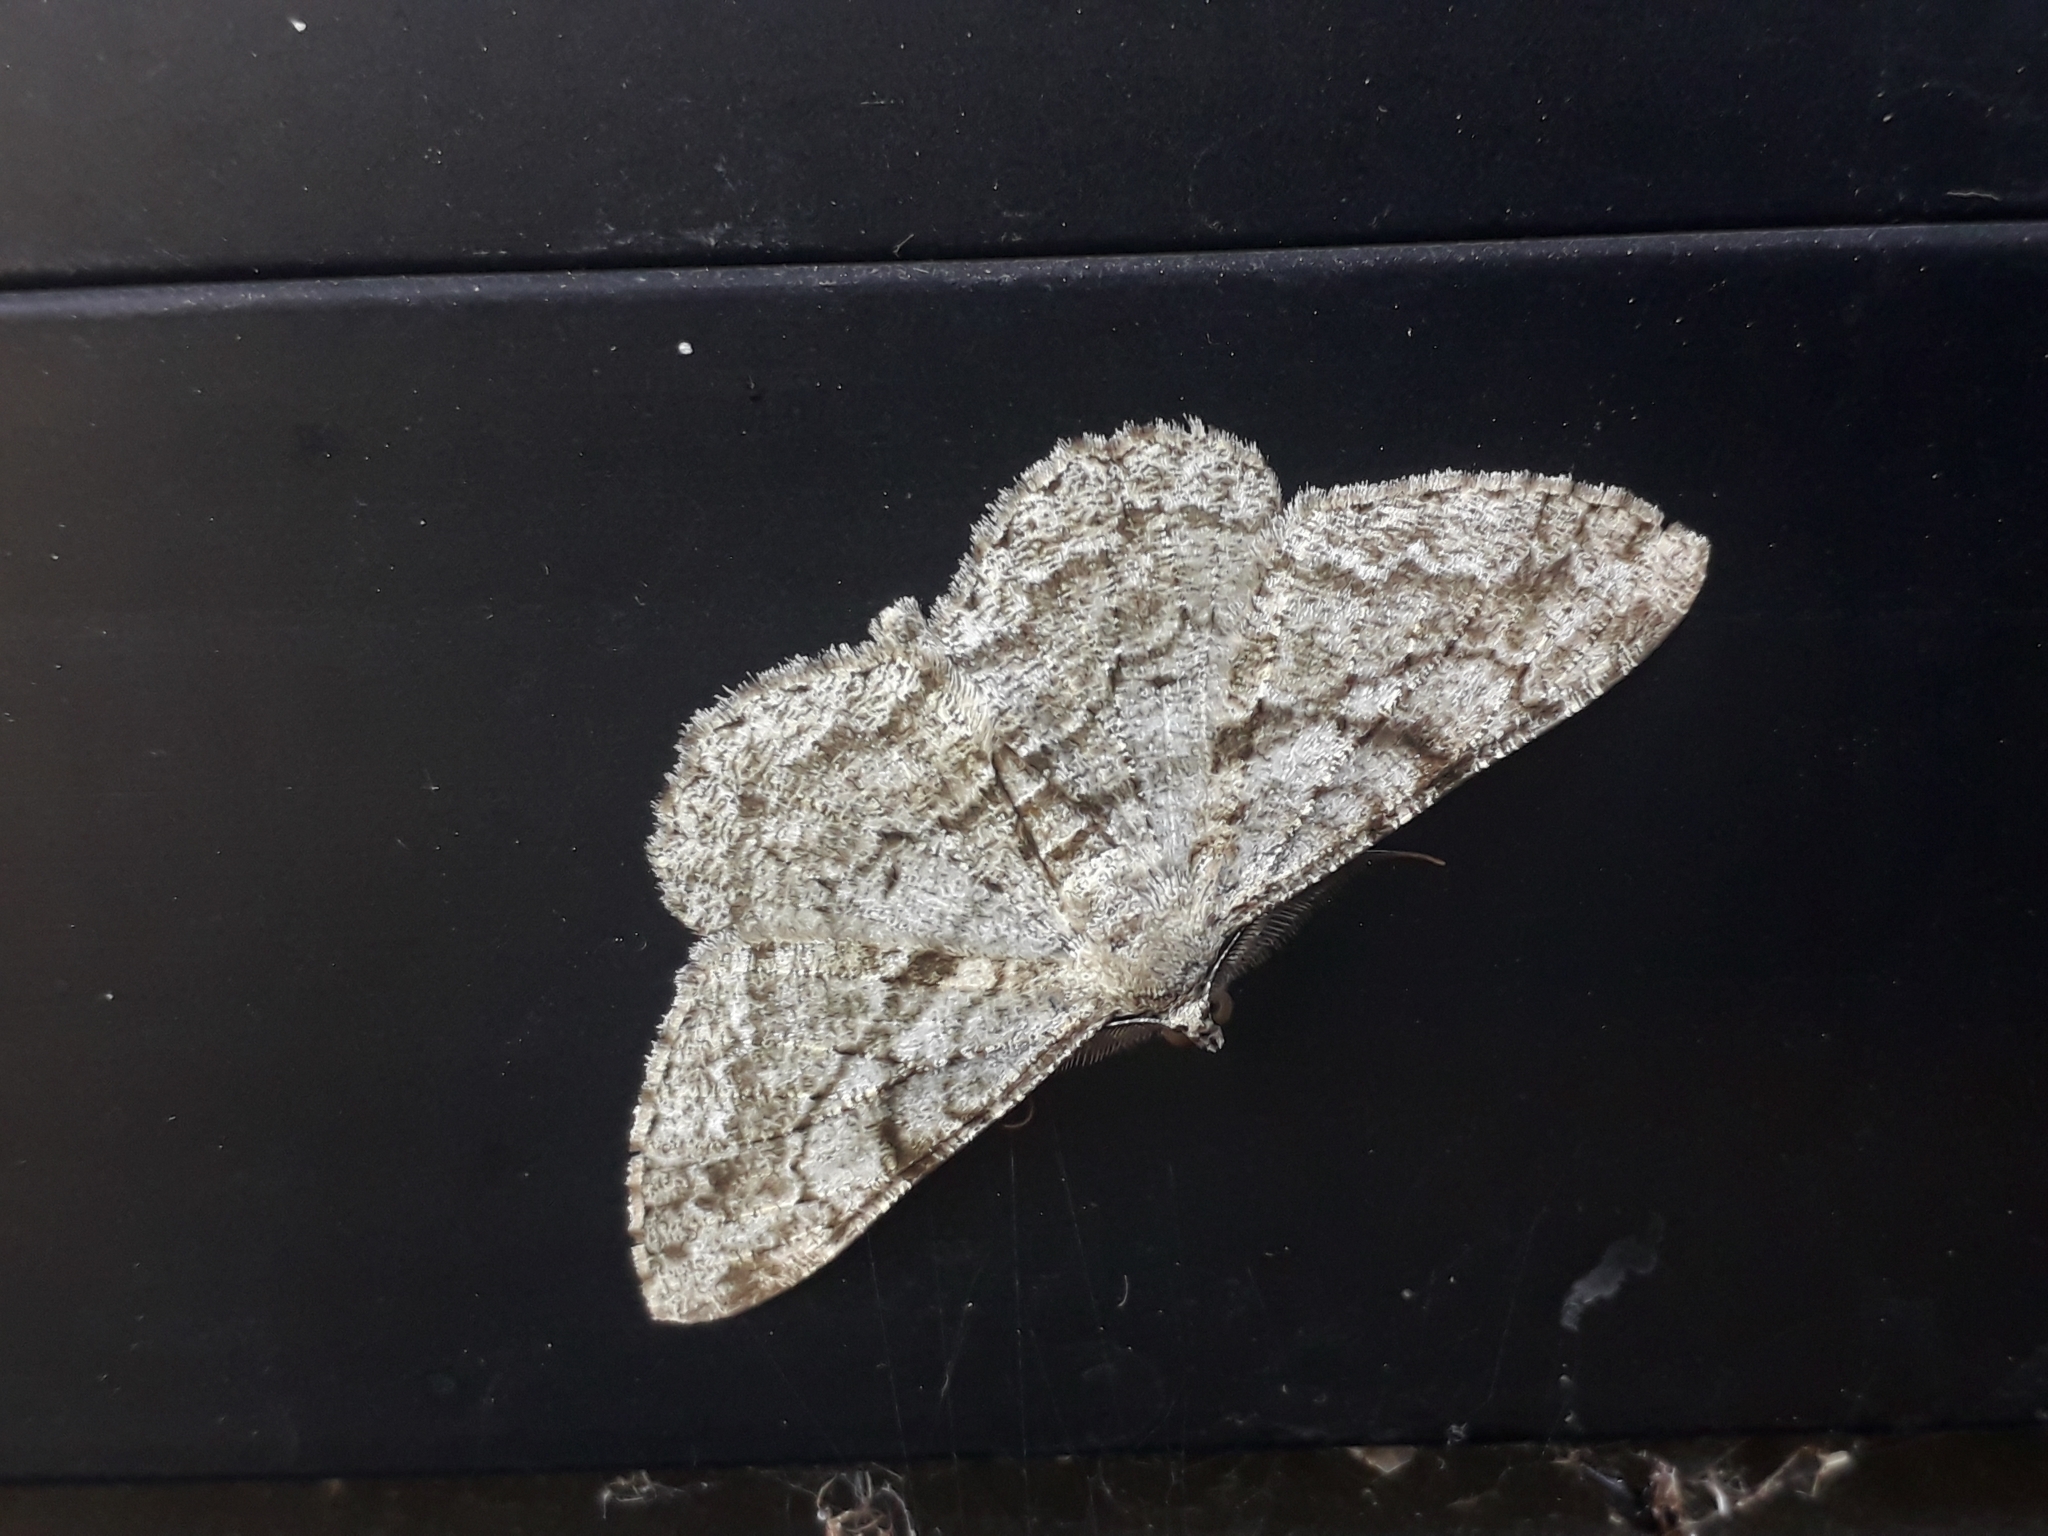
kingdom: Animalia
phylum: Arthropoda
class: Insecta
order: Lepidoptera
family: Geometridae
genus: Peribatodes
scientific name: Peribatodes rhomboidaria
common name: Willow beauty
